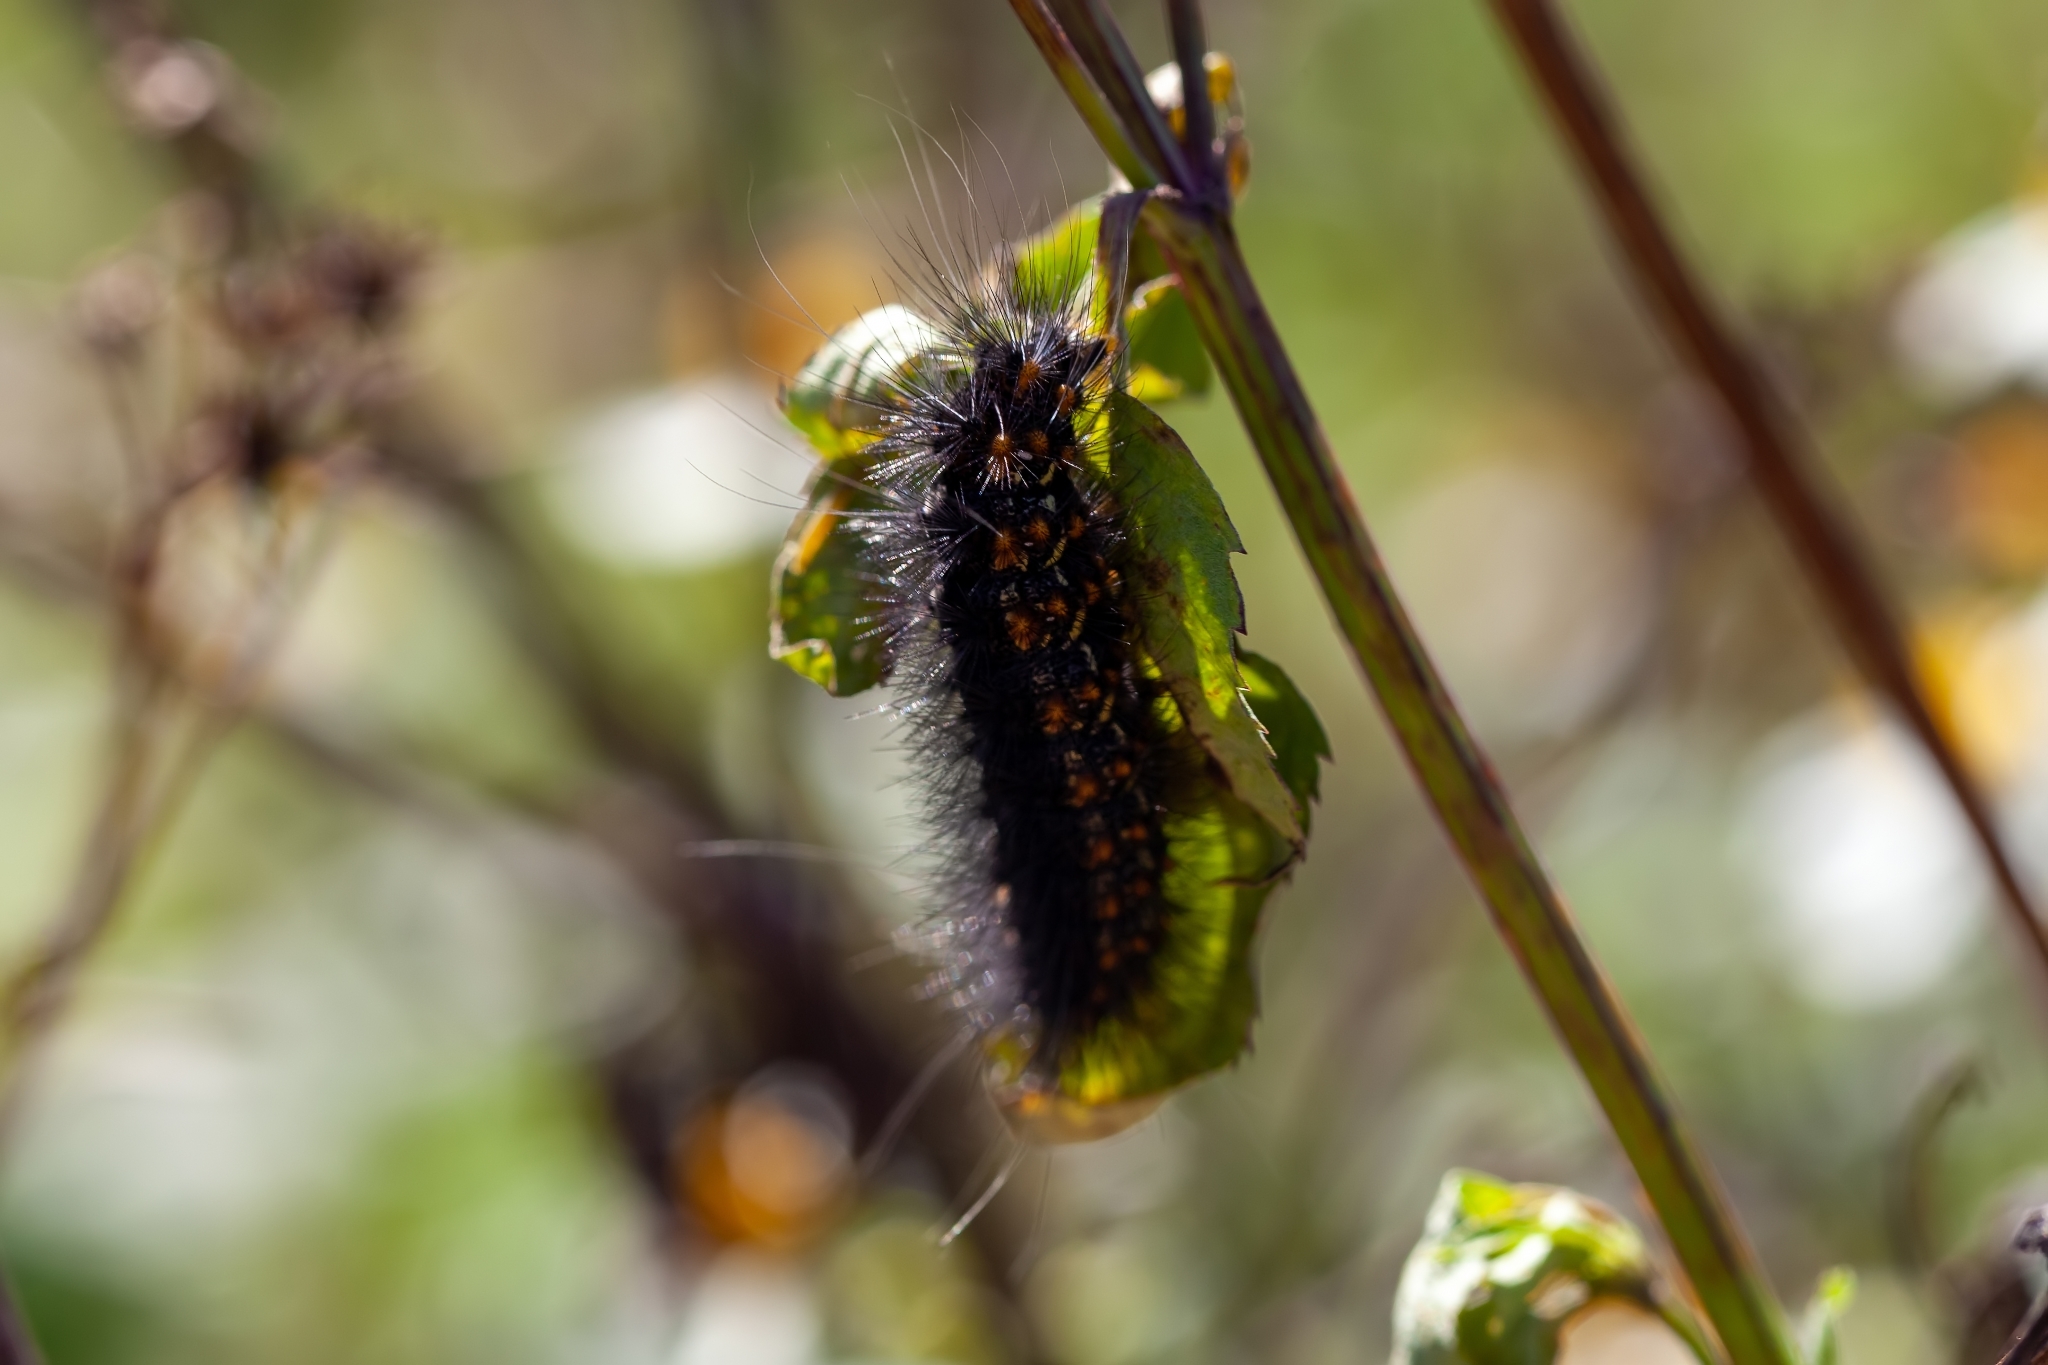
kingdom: Animalia
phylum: Arthropoda
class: Insecta
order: Lepidoptera
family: Erebidae
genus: Estigmene
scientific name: Estigmene acrea
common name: Salt marsh moth
